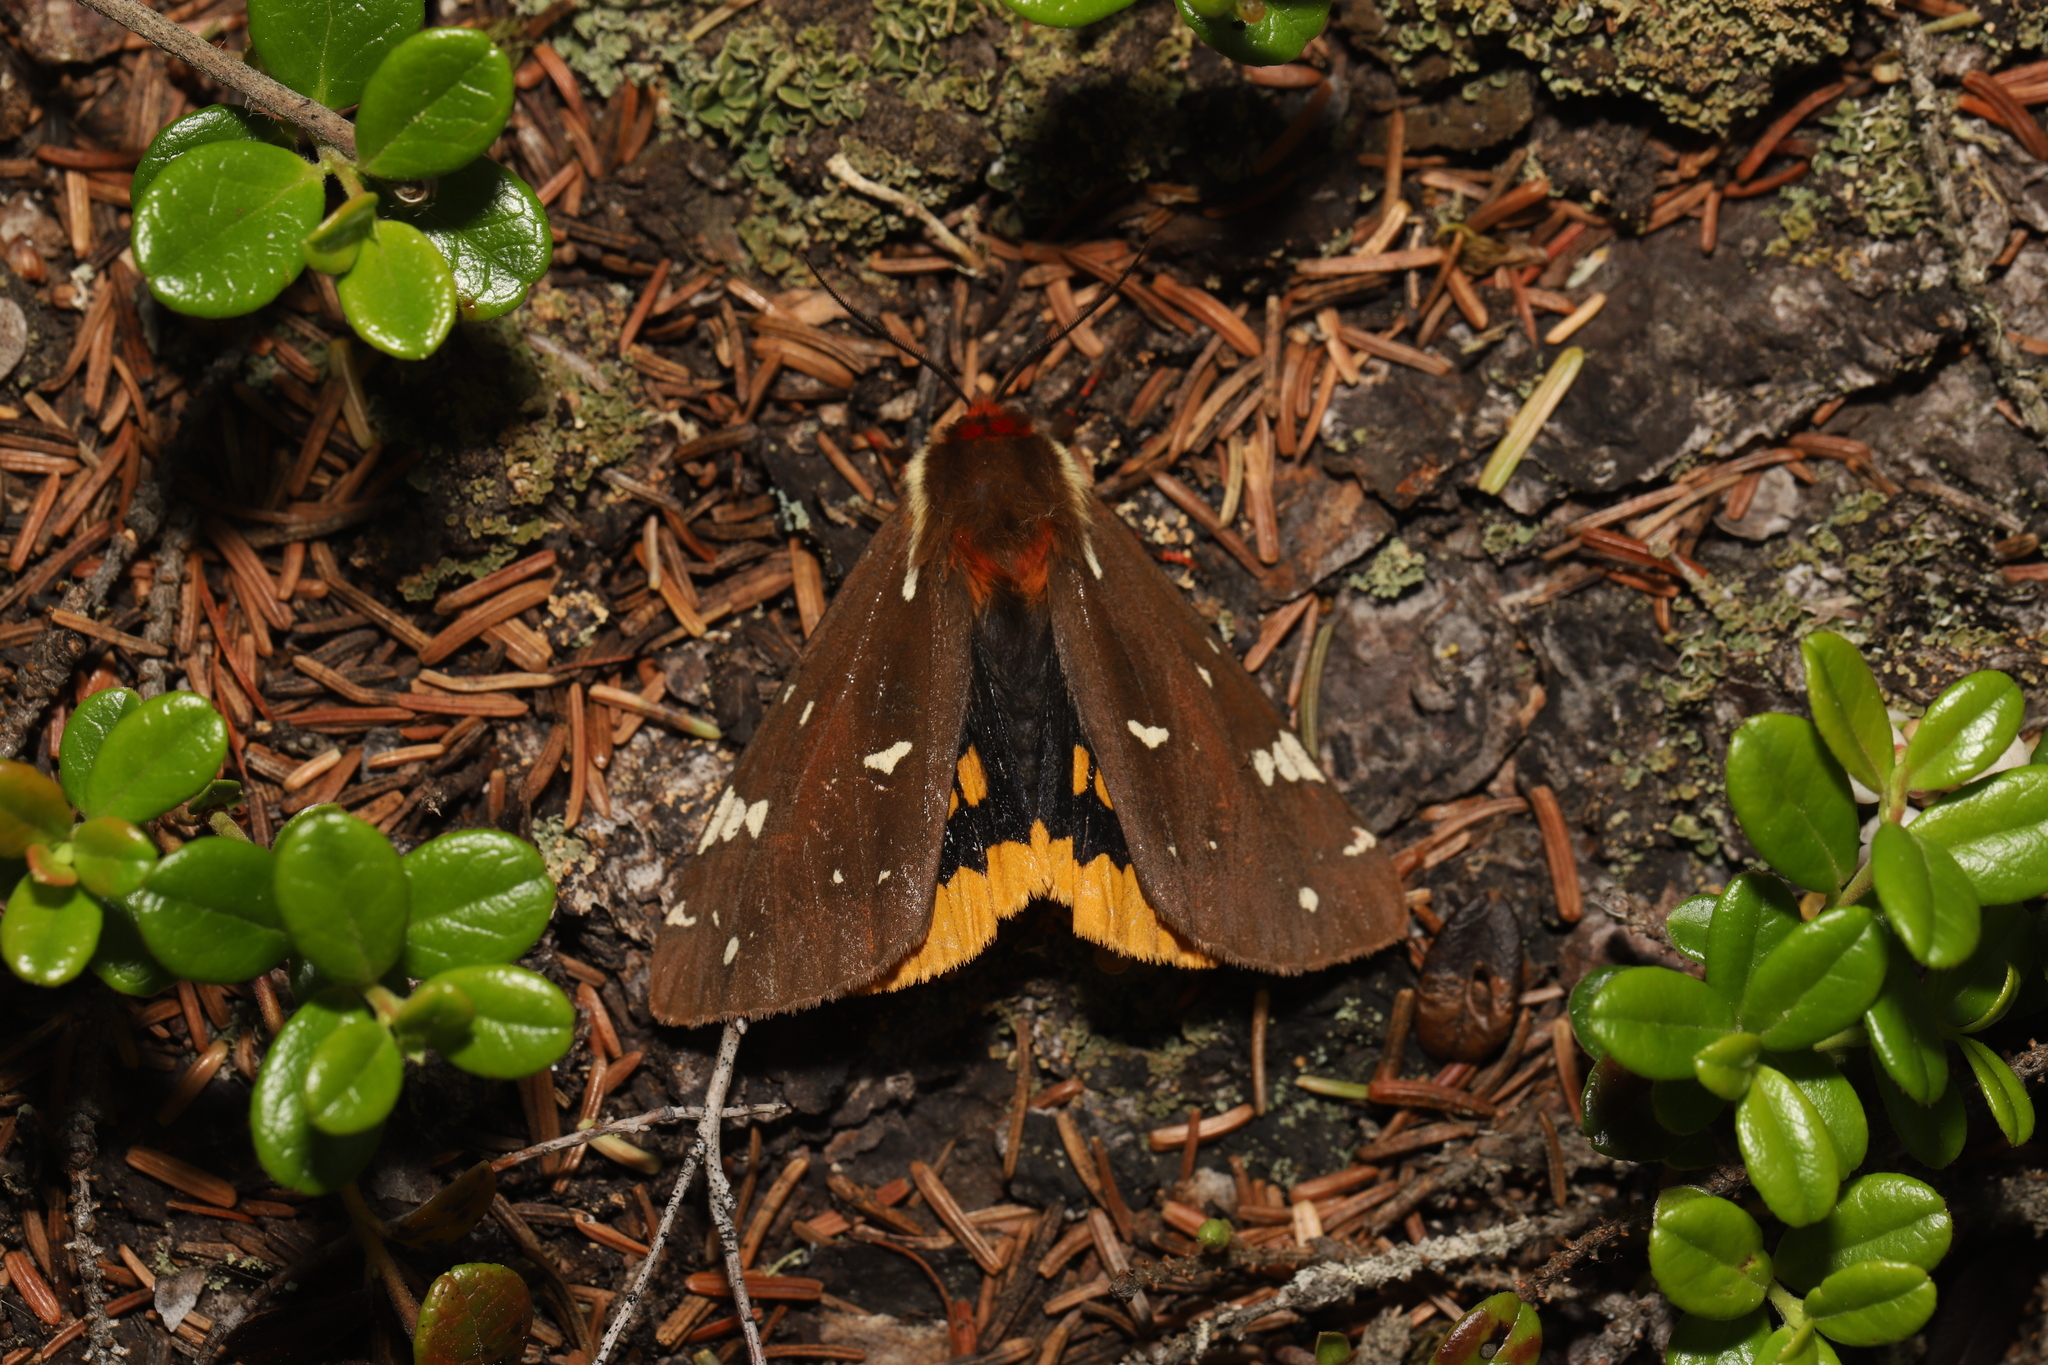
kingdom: Animalia
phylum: Arthropoda
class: Insecta
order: Lepidoptera
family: Erebidae
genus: Arctia
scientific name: Arctia parthenos
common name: St. lawrence tiger moth
